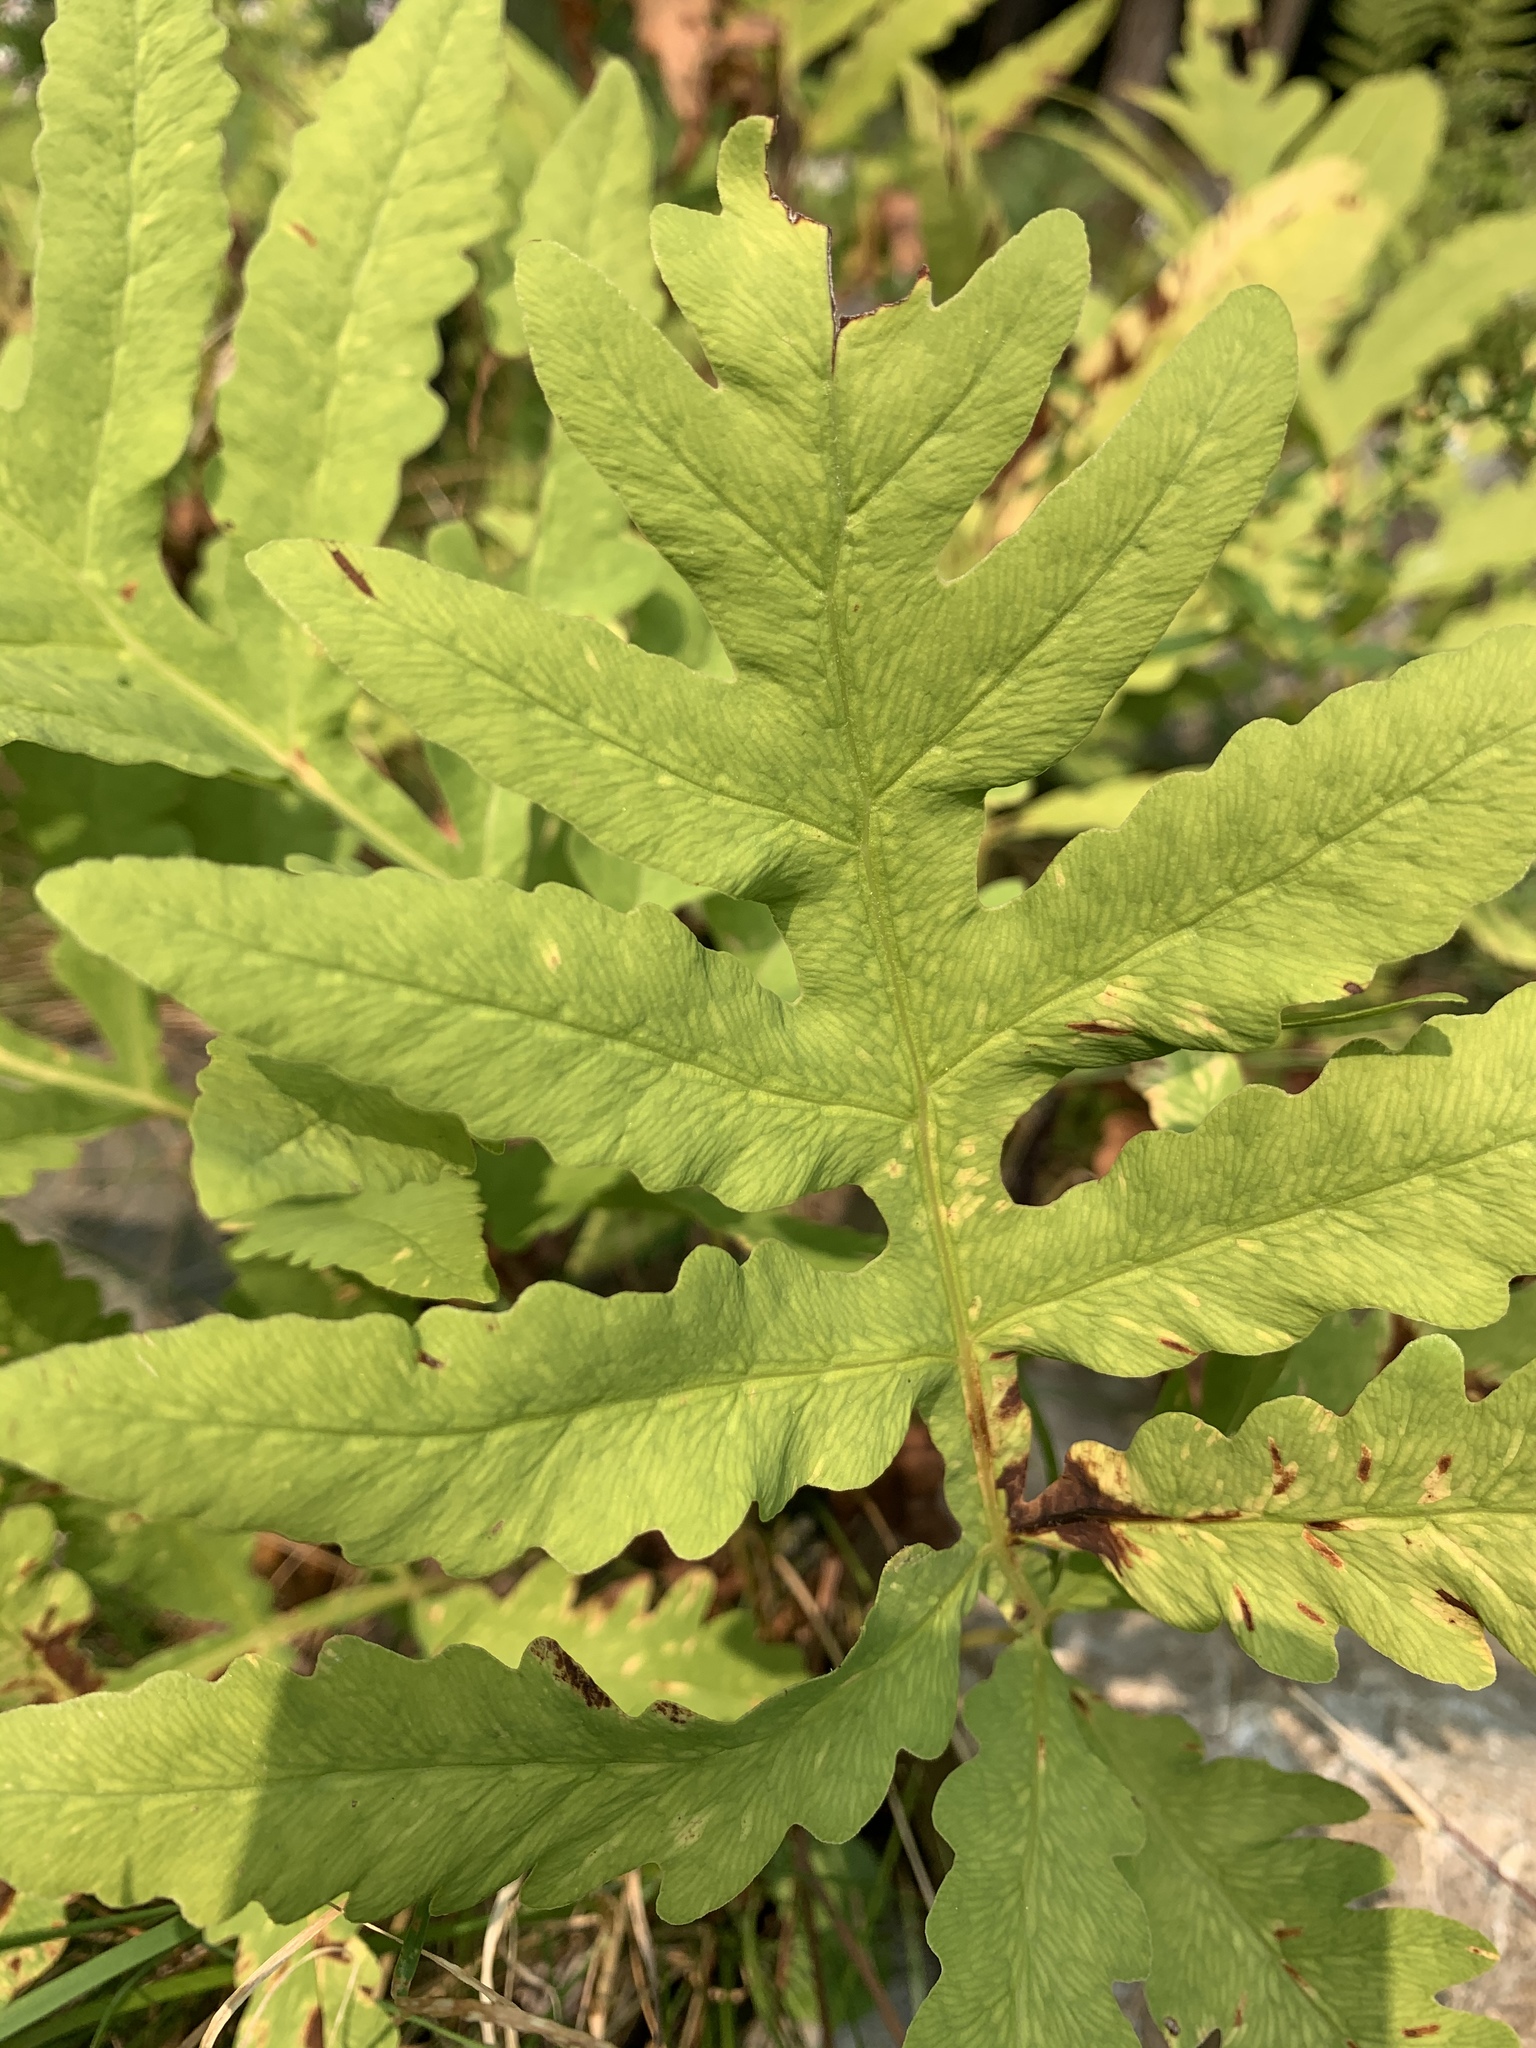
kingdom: Plantae
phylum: Tracheophyta
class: Polypodiopsida
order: Polypodiales
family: Onocleaceae
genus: Onoclea
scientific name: Onoclea sensibilis
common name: Sensitive fern
